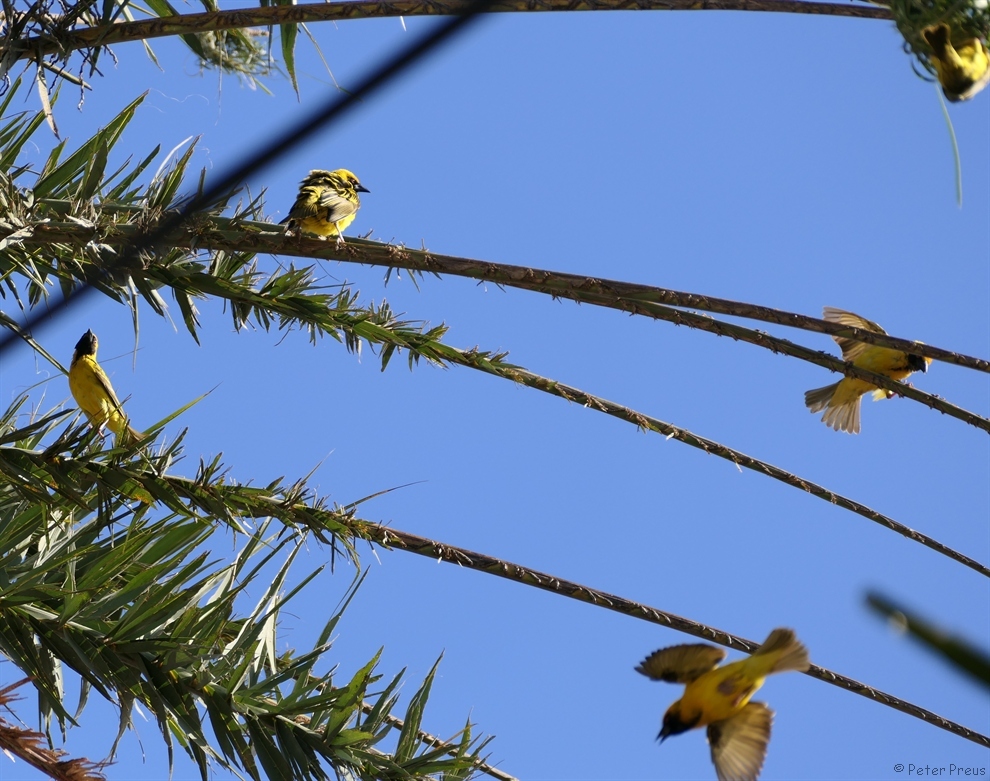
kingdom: Animalia
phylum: Chordata
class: Aves
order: Passeriformes
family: Ploceidae
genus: Ploceus
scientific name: Ploceus cucullatus
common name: Village weaver
